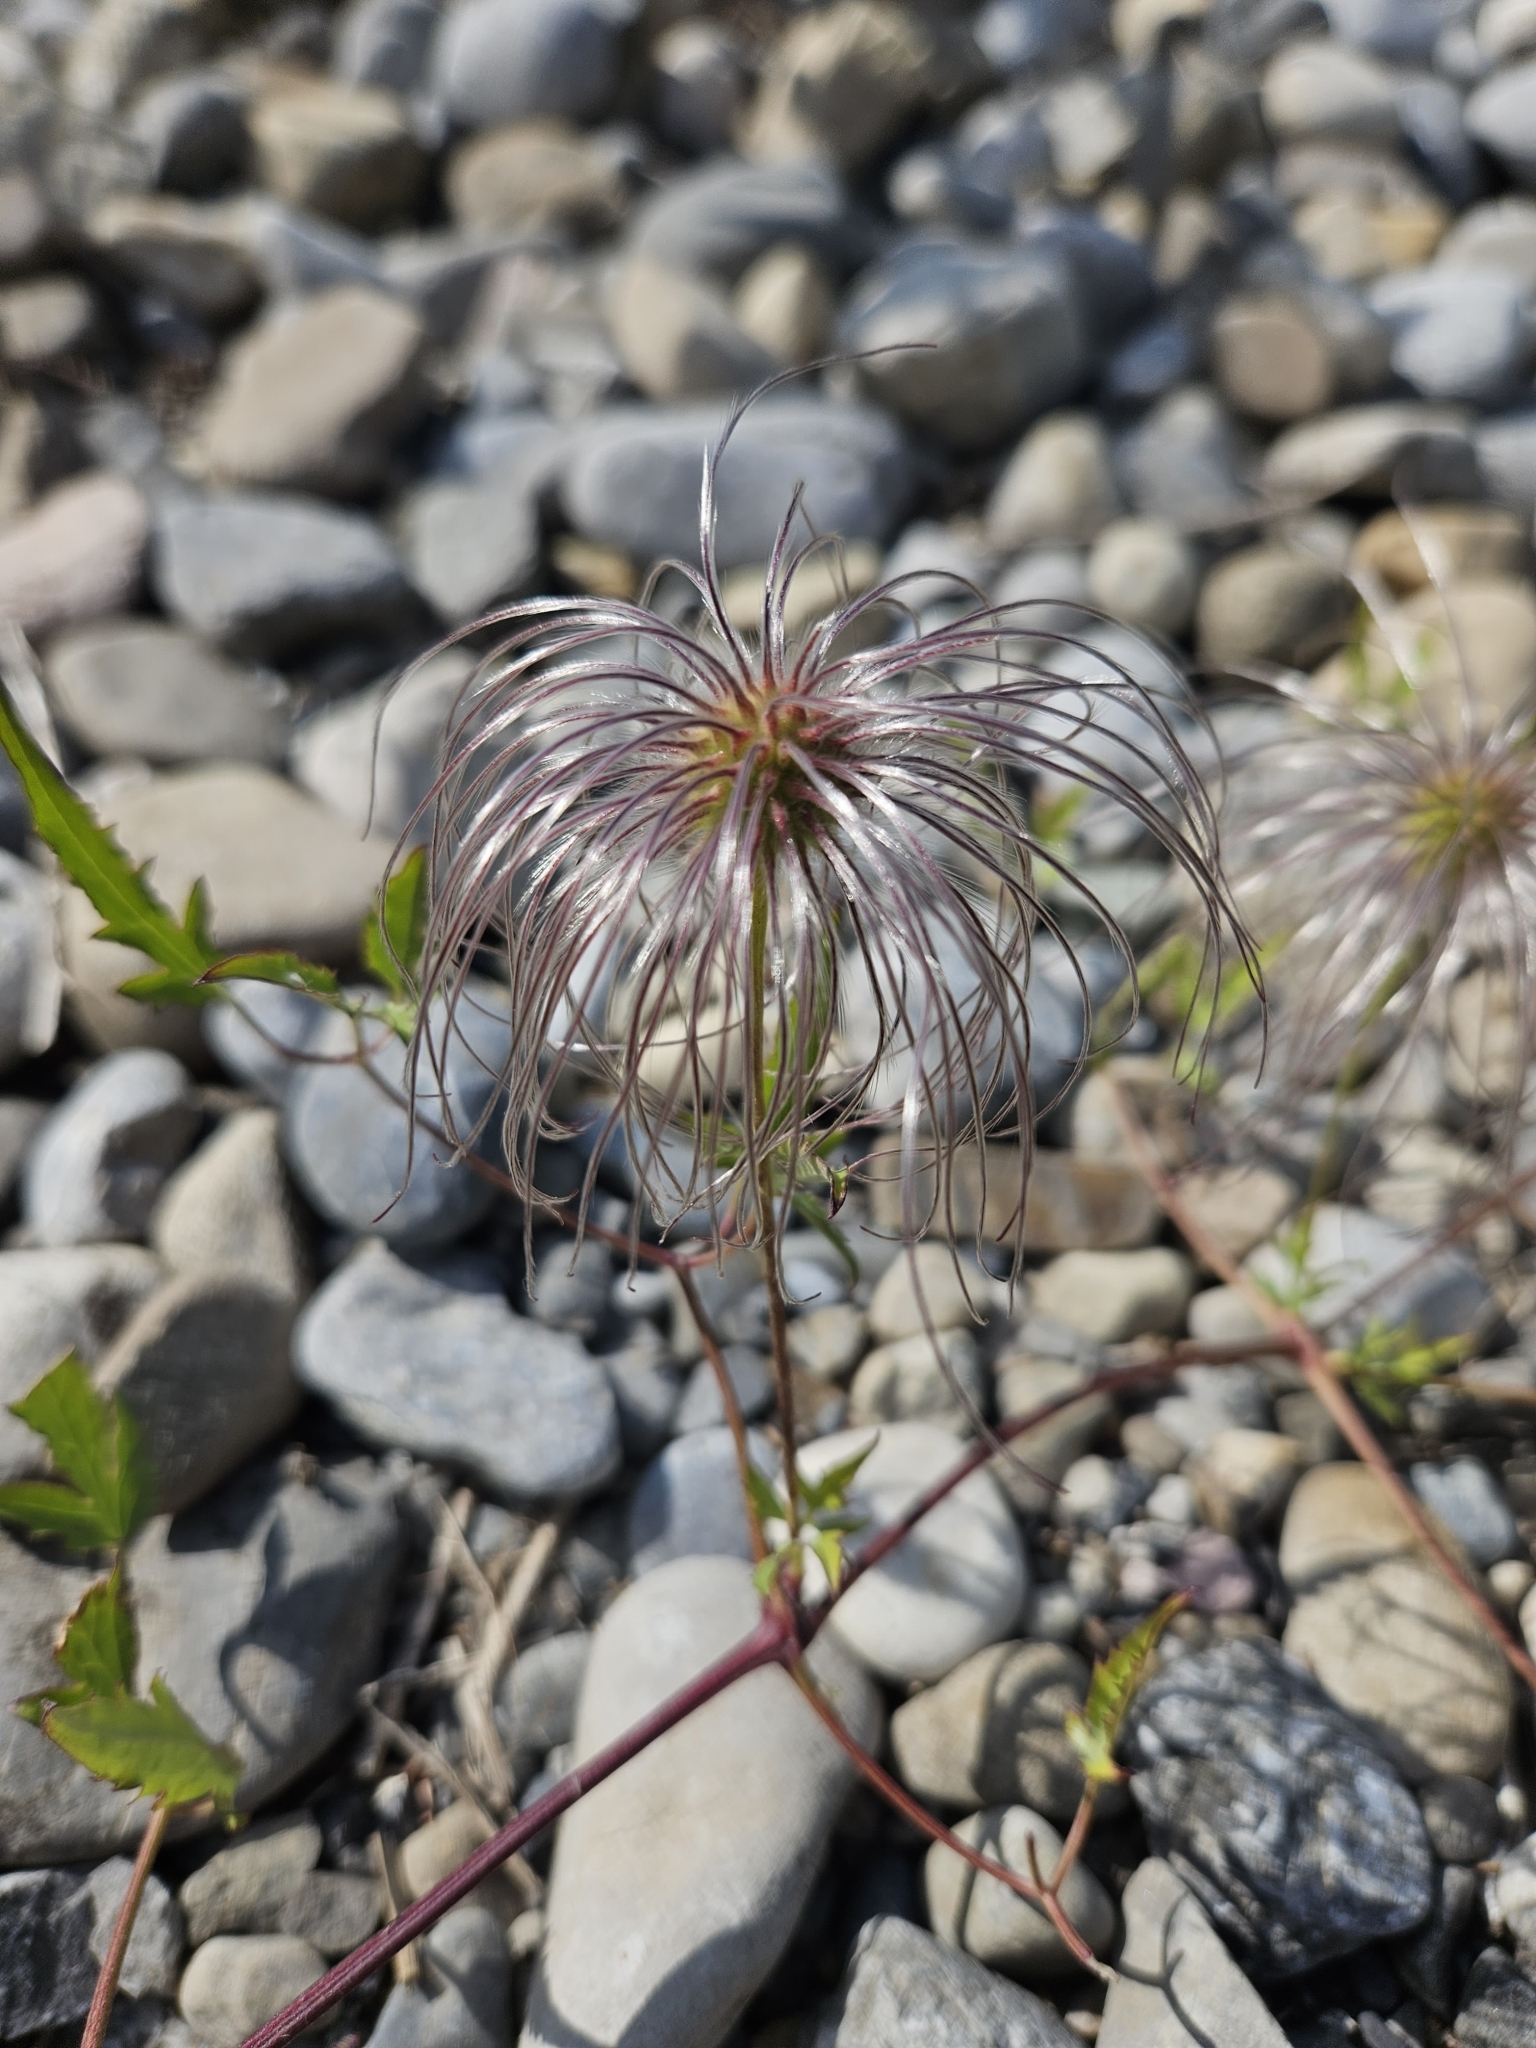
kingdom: Plantae
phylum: Tracheophyta
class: Magnoliopsida
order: Ranunculales
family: Ranunculaceae
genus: Clematis
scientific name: Clematis tangutica
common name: Orange-peel clematis
